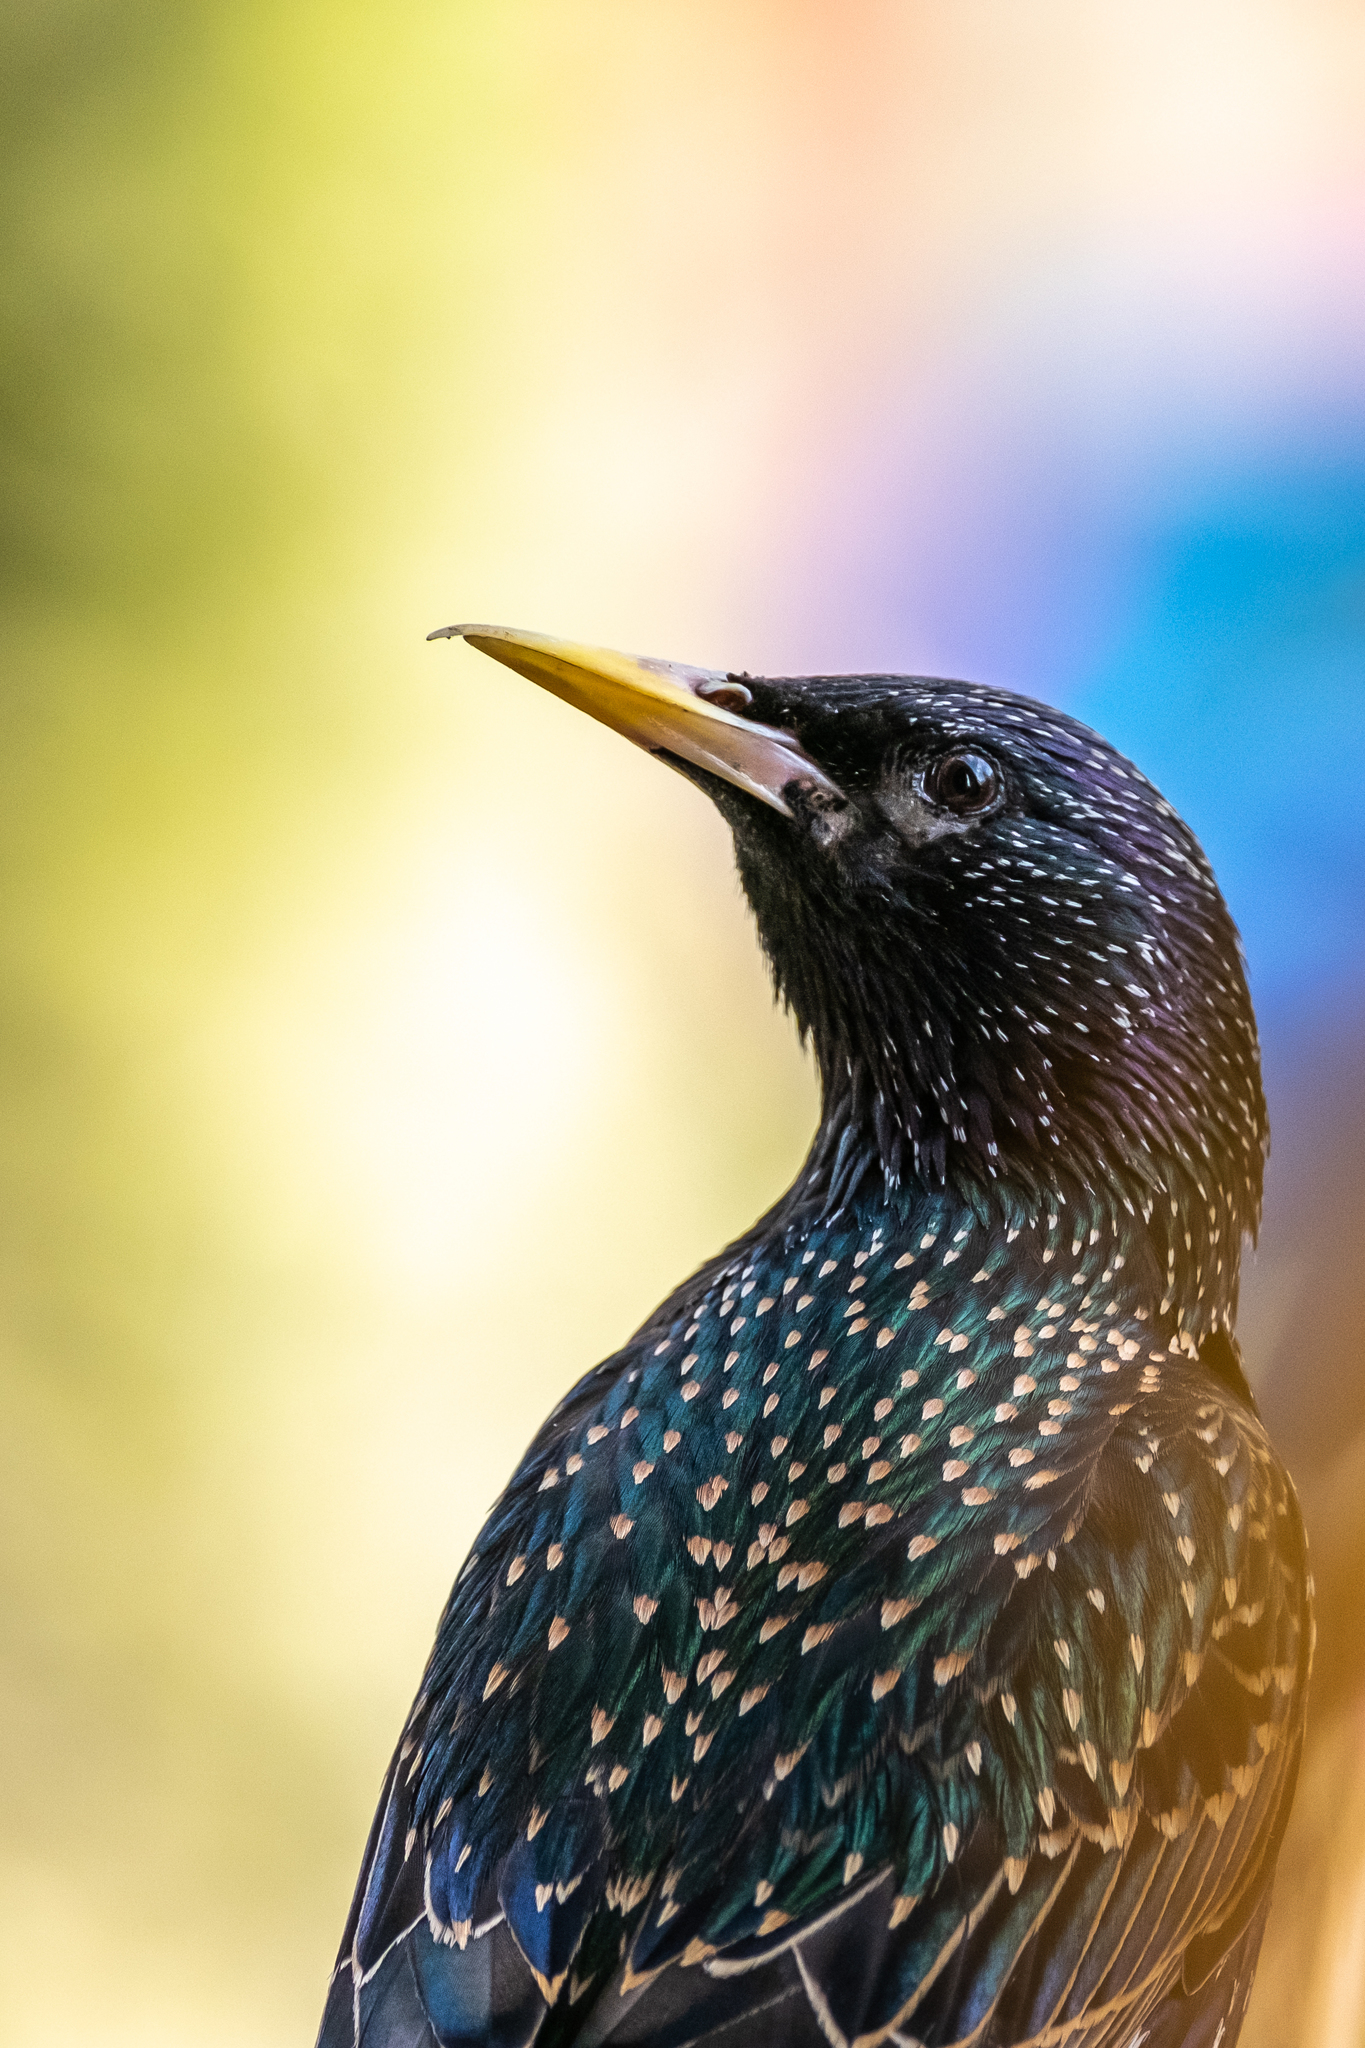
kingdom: Animalia
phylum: Chordata
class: Aves
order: Passeriformes
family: Sturnidae
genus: Sturnus
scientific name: Sturnus vulgaris
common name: Common starling
